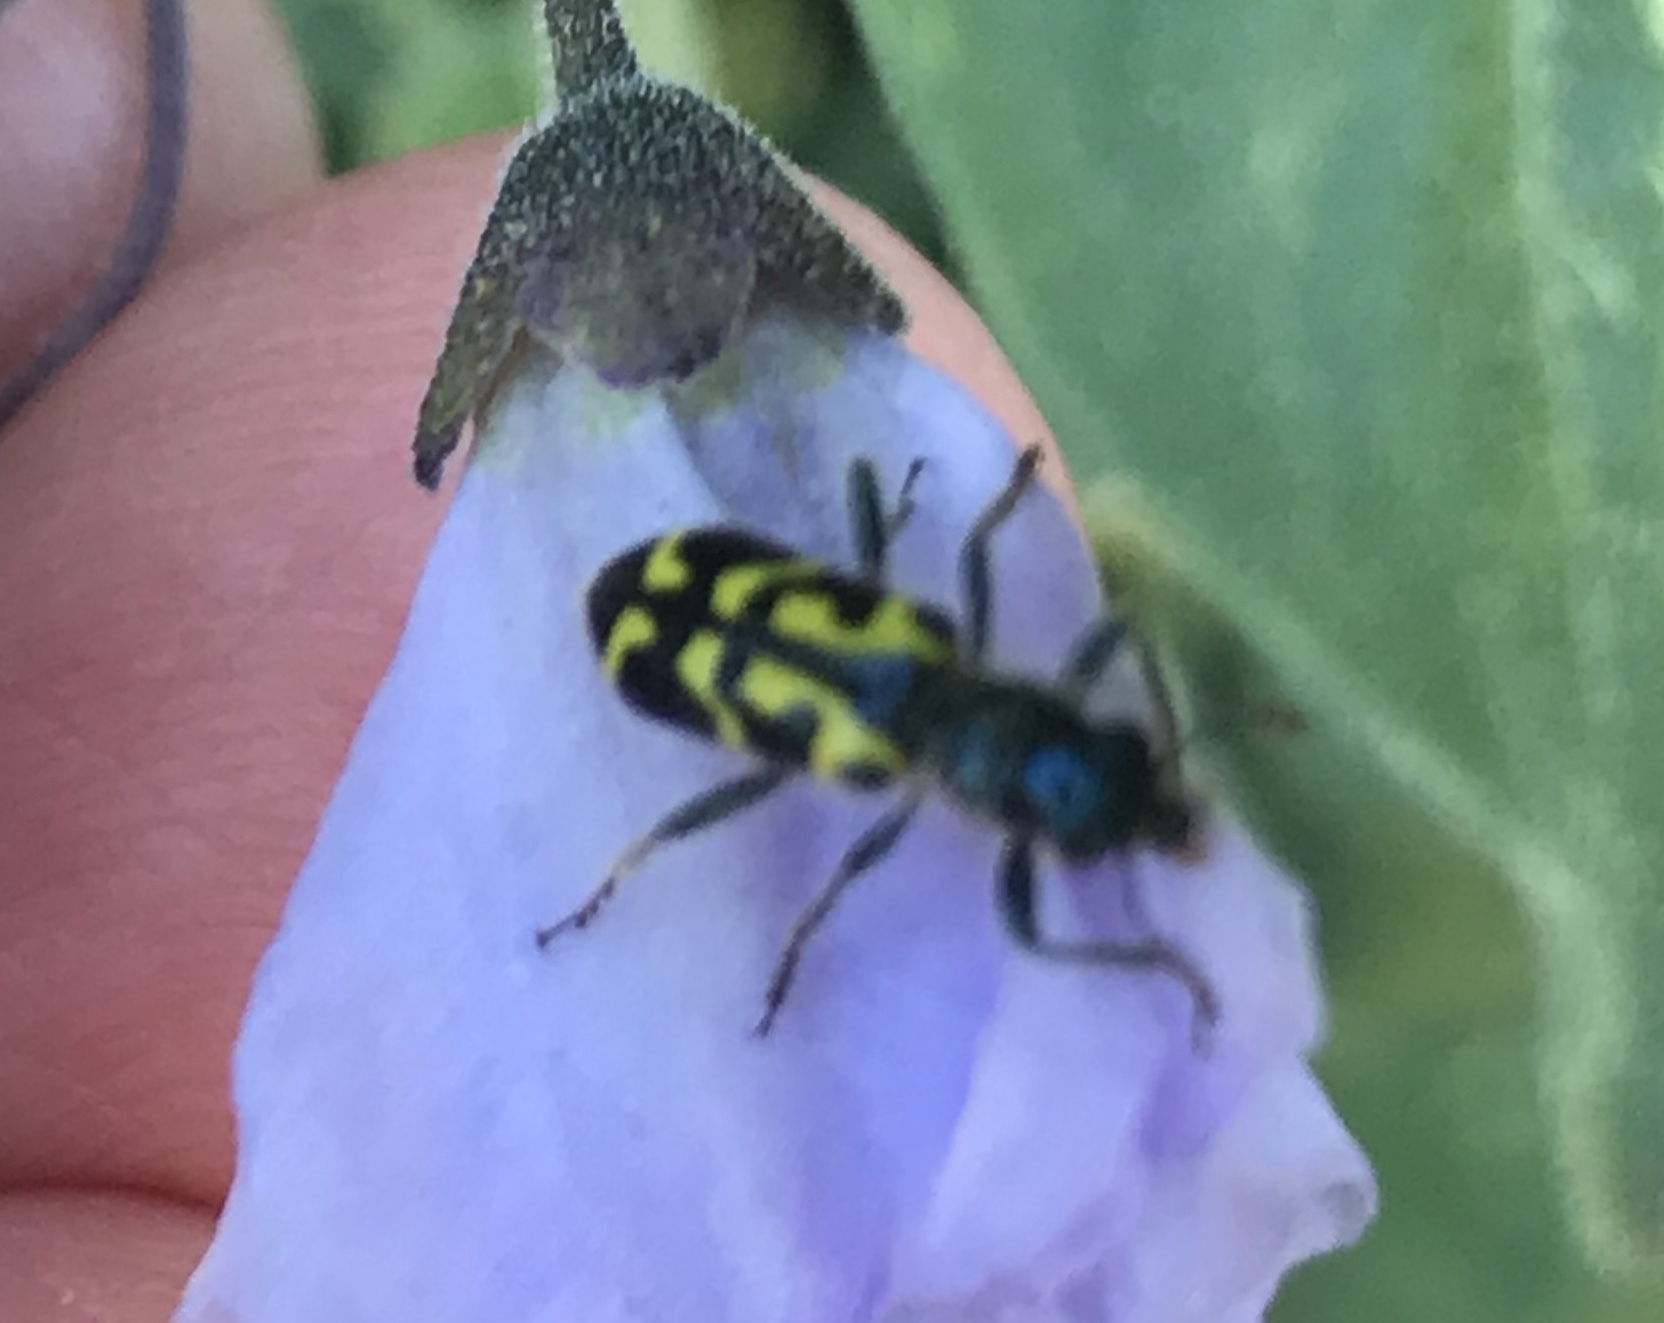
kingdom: Animalia
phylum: Arthropoda
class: Insecta
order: Coleoptera
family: Cleridae
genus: Trichodes
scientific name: Trichodes ornatus
